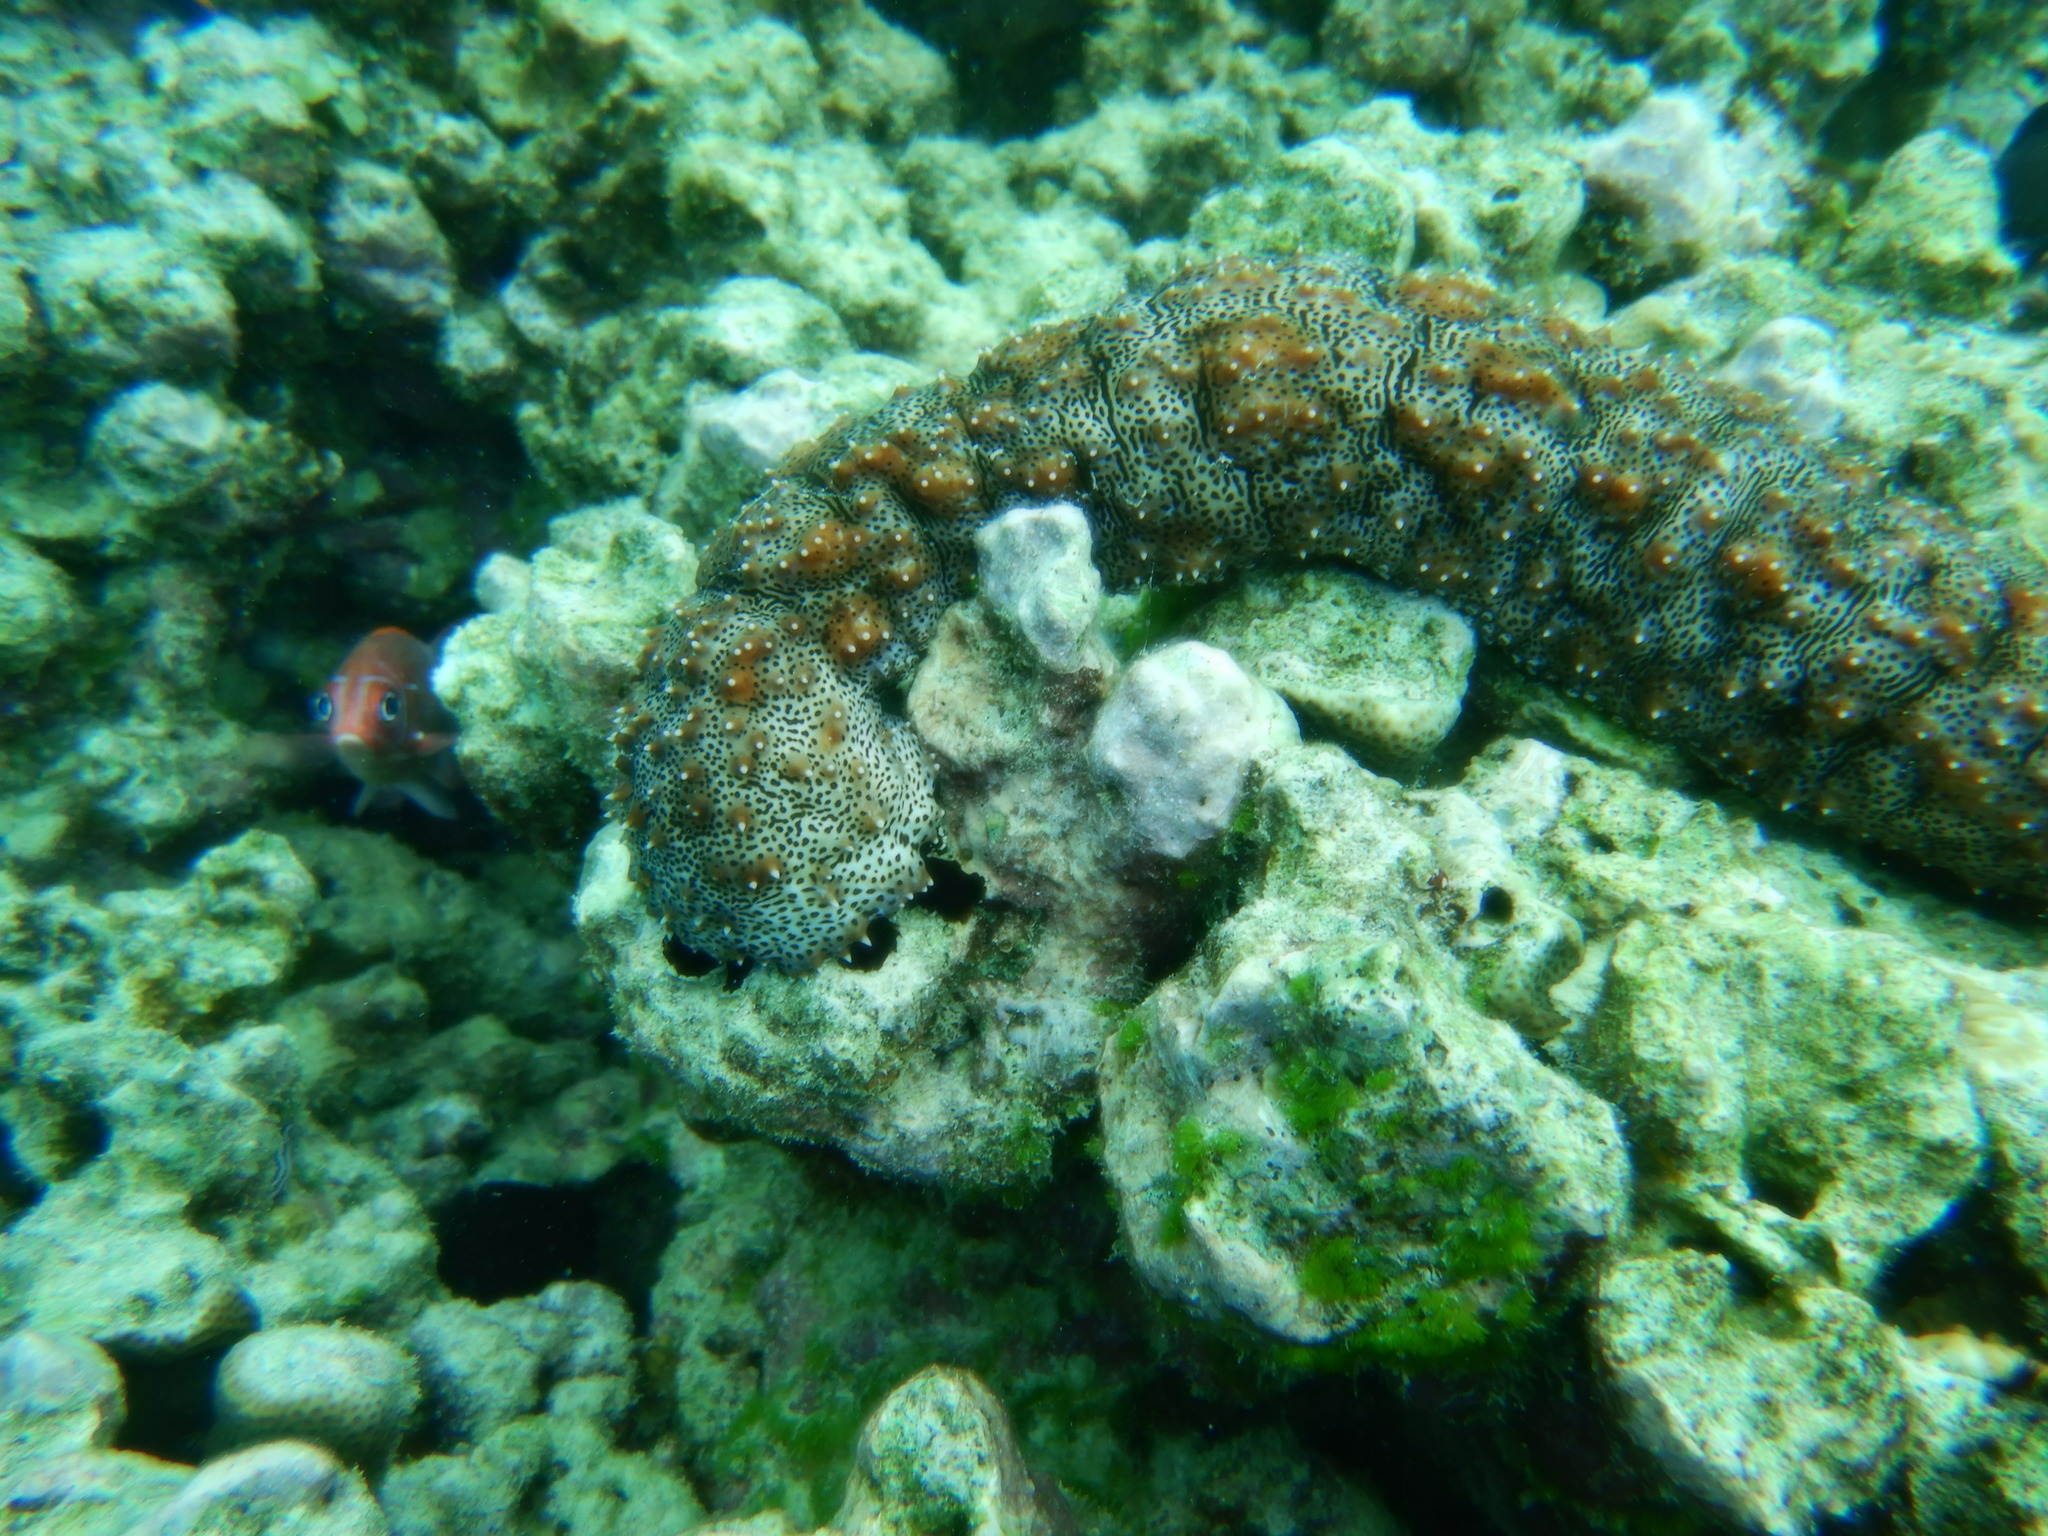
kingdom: Animalia
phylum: Echinodermata
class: Holothuroidea
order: Holothuriida
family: Holothuriidae
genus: Pearsonothuria
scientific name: Pearsonothuria graeffei
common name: Blackspotted sea cucumber
